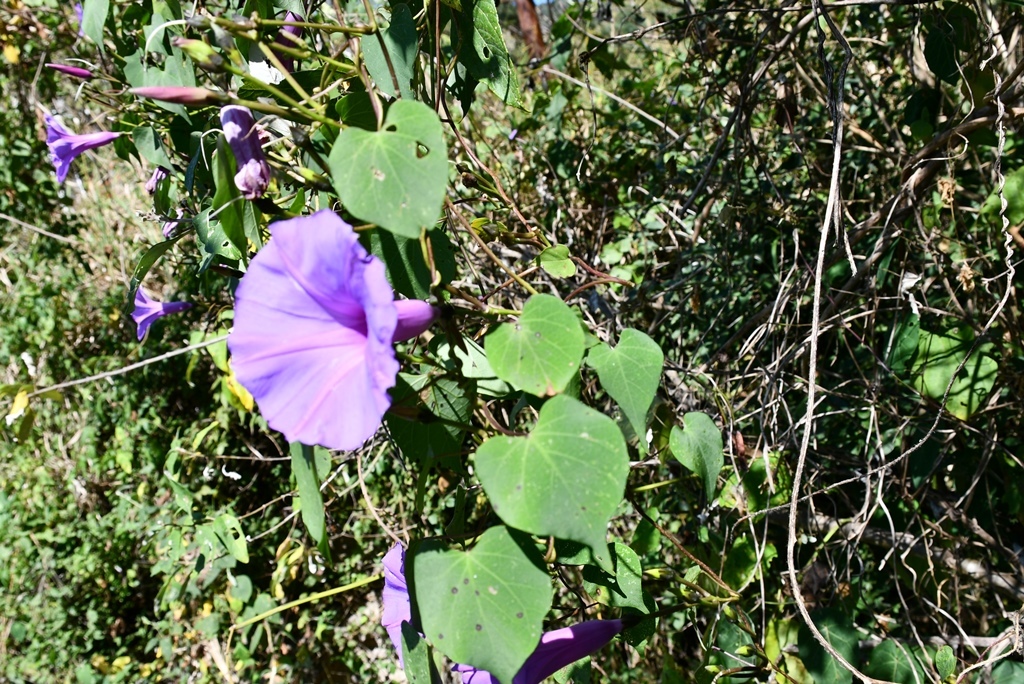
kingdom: Plantae
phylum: Tracheophyta
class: Magnoliopsida
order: Solanales
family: Convolvulaceae
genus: Ipomoea
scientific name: Ipomoea pedicellaris
